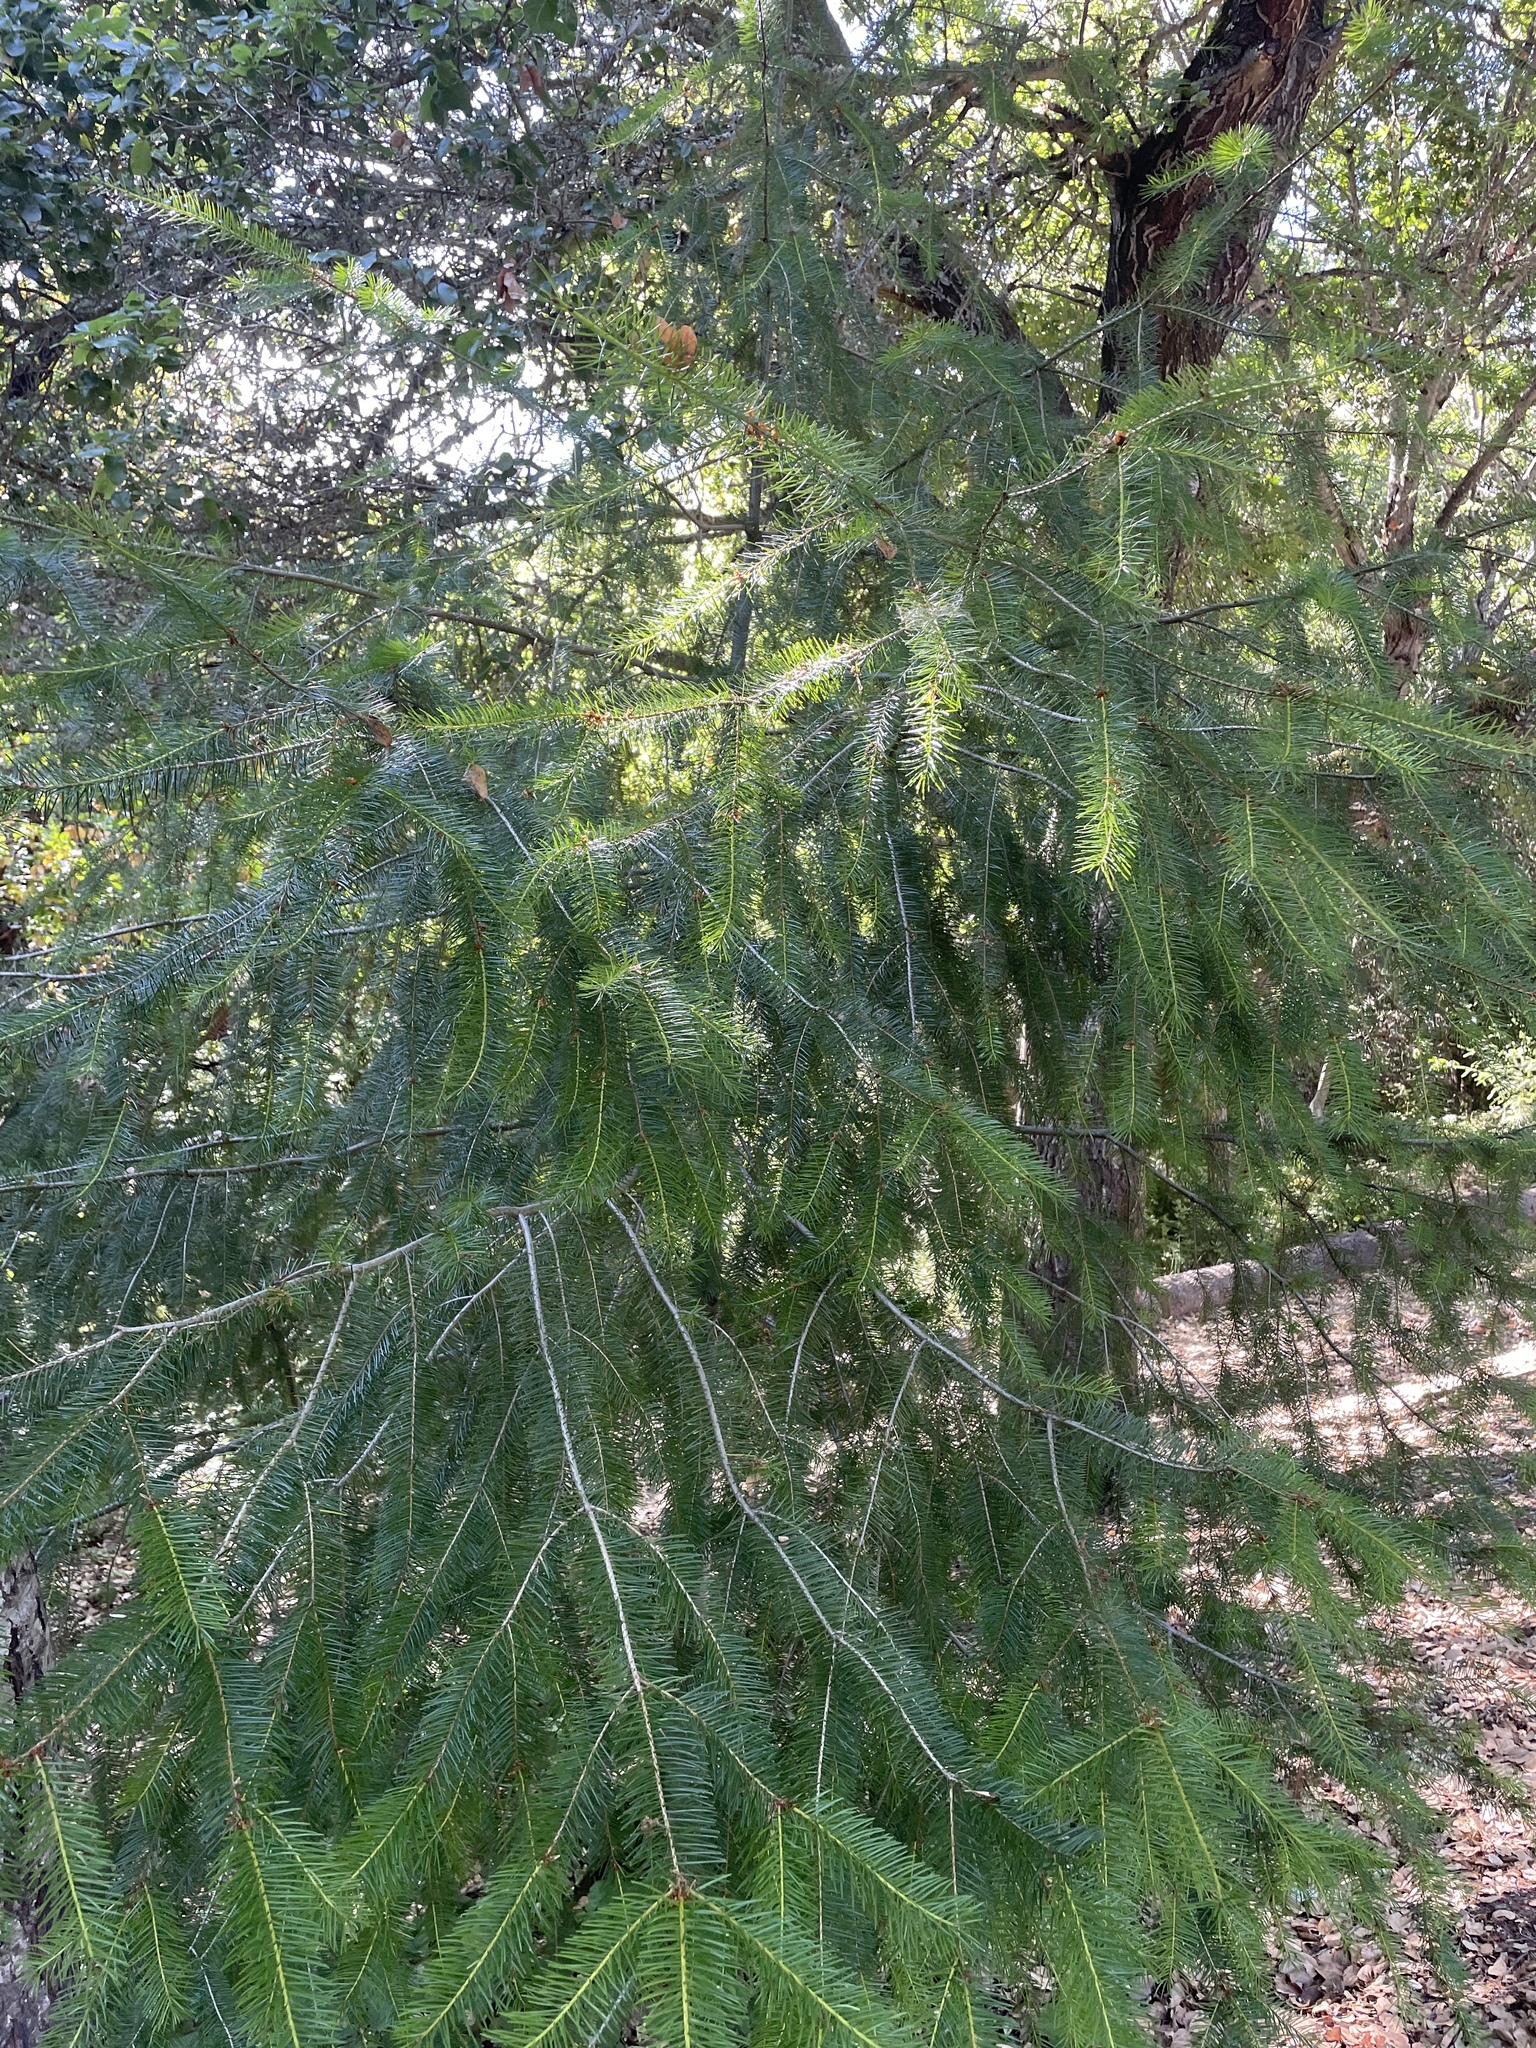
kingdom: Plantae
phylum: Tracheophyta
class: Pinopsida
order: Pinales
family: Pinaceae
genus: Pseudotsuga
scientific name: Pseudotsuga menziesii
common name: Douglas fir
